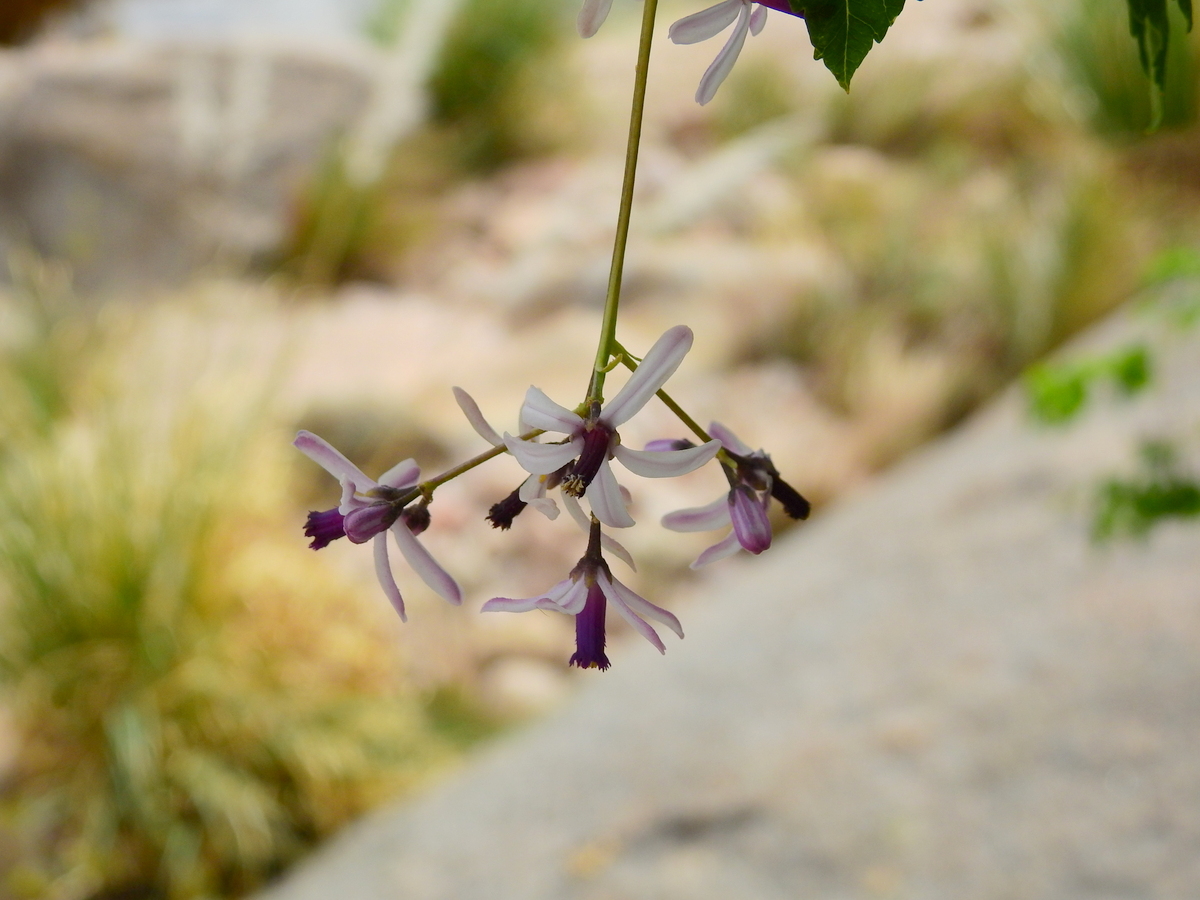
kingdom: Plantae
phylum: Tracheophyta
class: Magnoliopsida
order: Sapindales
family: Meliaceae
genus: Melia
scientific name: Melia azedarach
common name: Chinaberrytree
